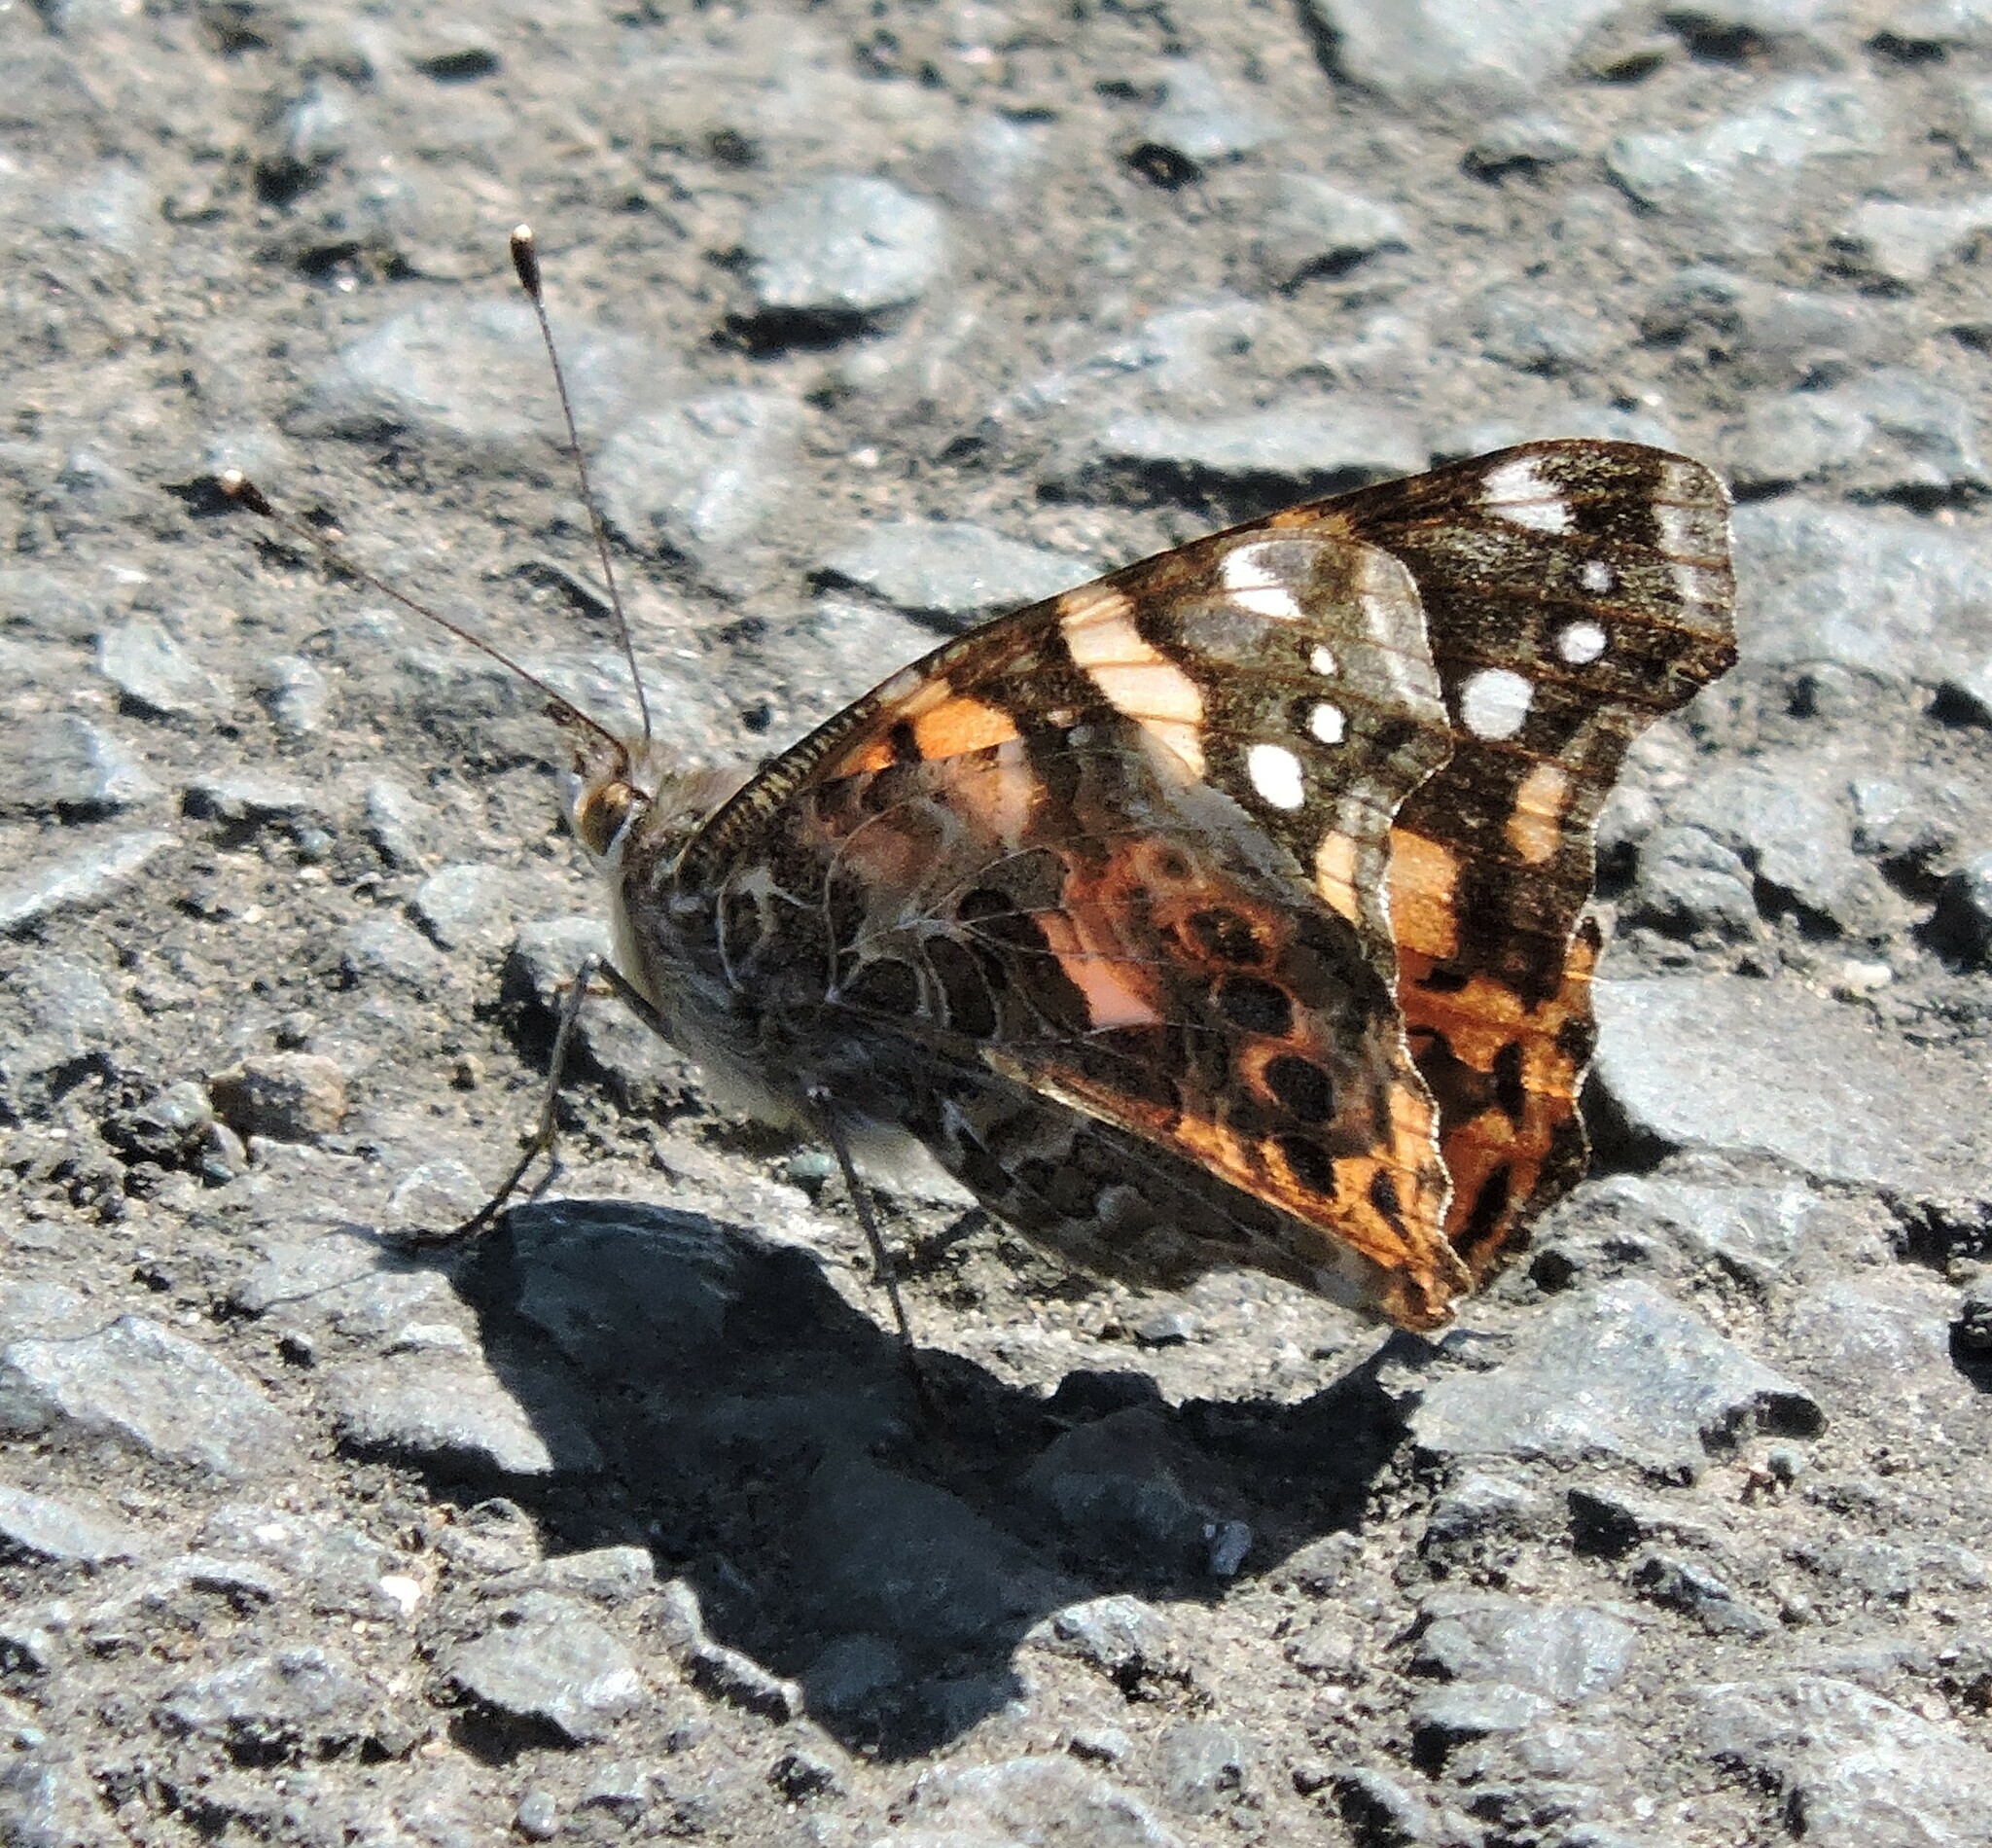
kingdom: Animalia
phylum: Arthropoda
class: Insecta
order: Lepidoptera
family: Nymphalidae
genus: Vanessa
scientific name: Vanessa annabella
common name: West coast lady
